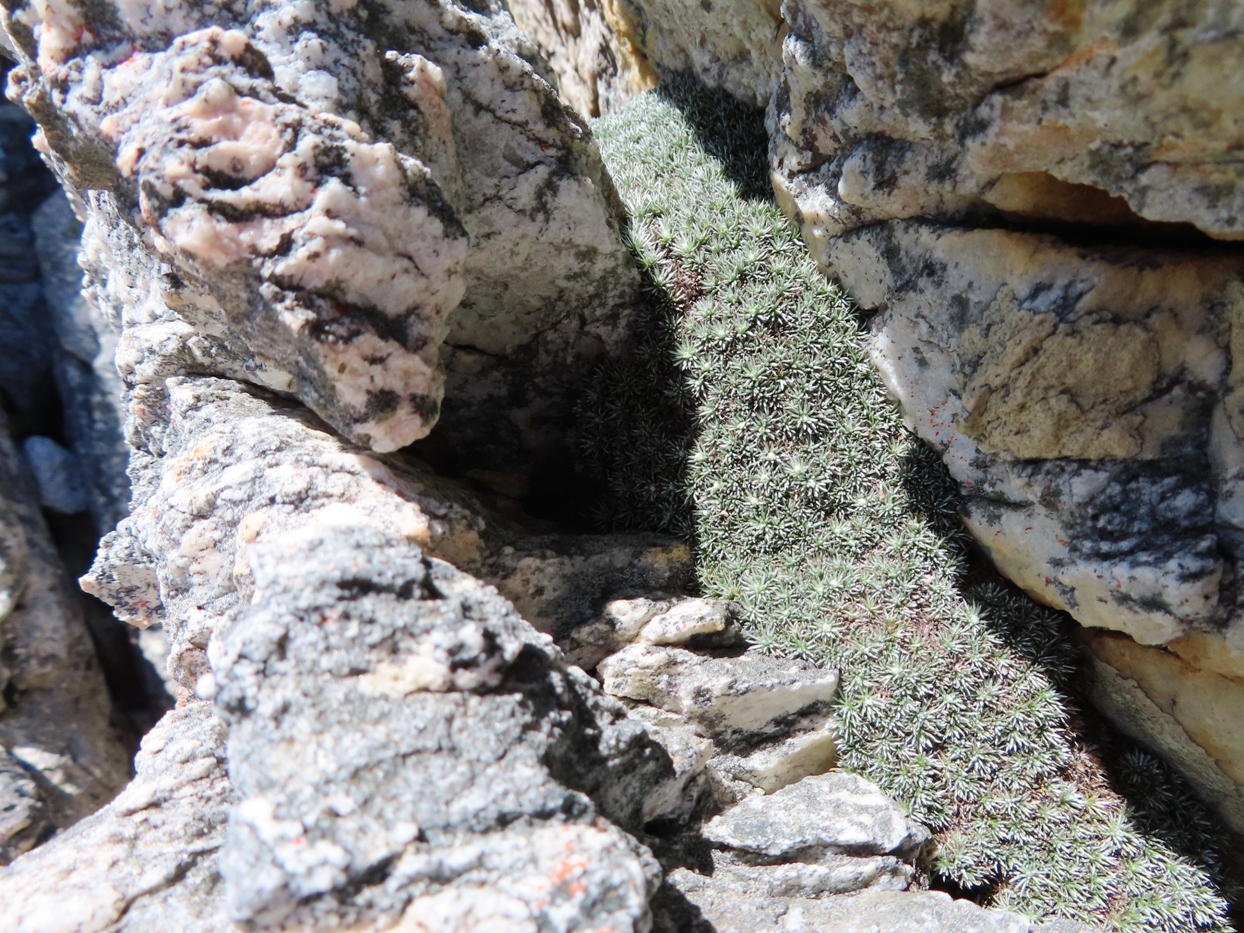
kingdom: Plantae
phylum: Tracheophyta
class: Magnoliopsida
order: Asterales
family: Asteraceae
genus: Muscosomorphe
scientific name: Muscosomorphe aretioides
